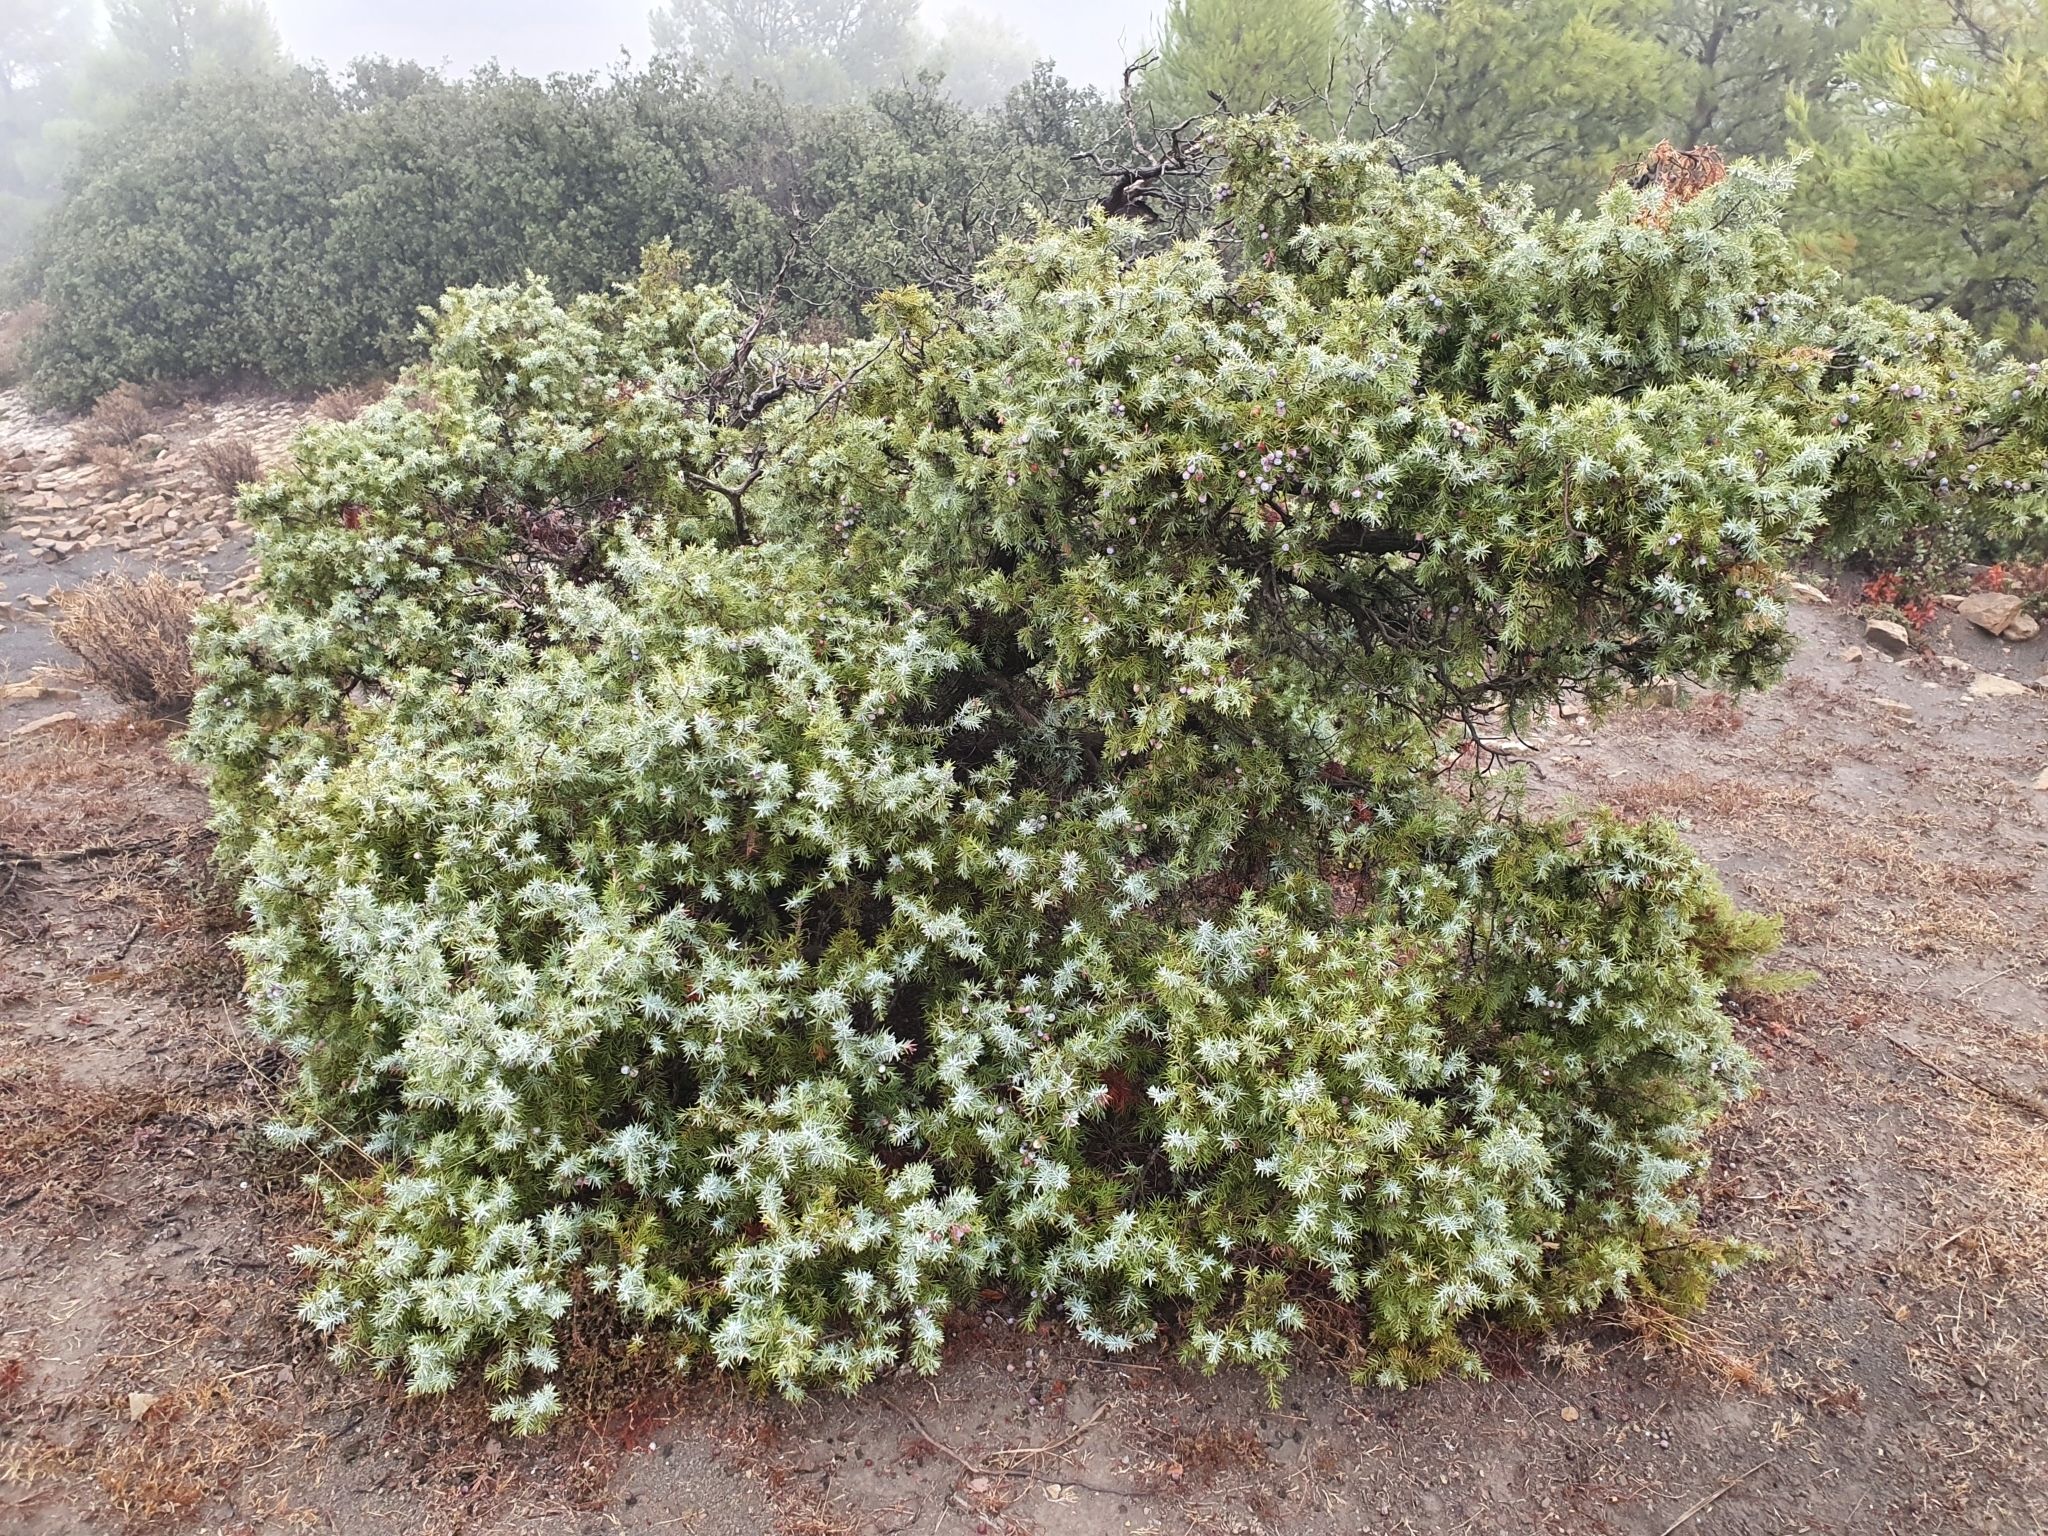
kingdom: Plantae
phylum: Tracheophyta
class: Pinopsida
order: Pinales
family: Cupressaceae
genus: Juniperus
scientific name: Juniperus oxycedrus
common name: Prickly juniper
